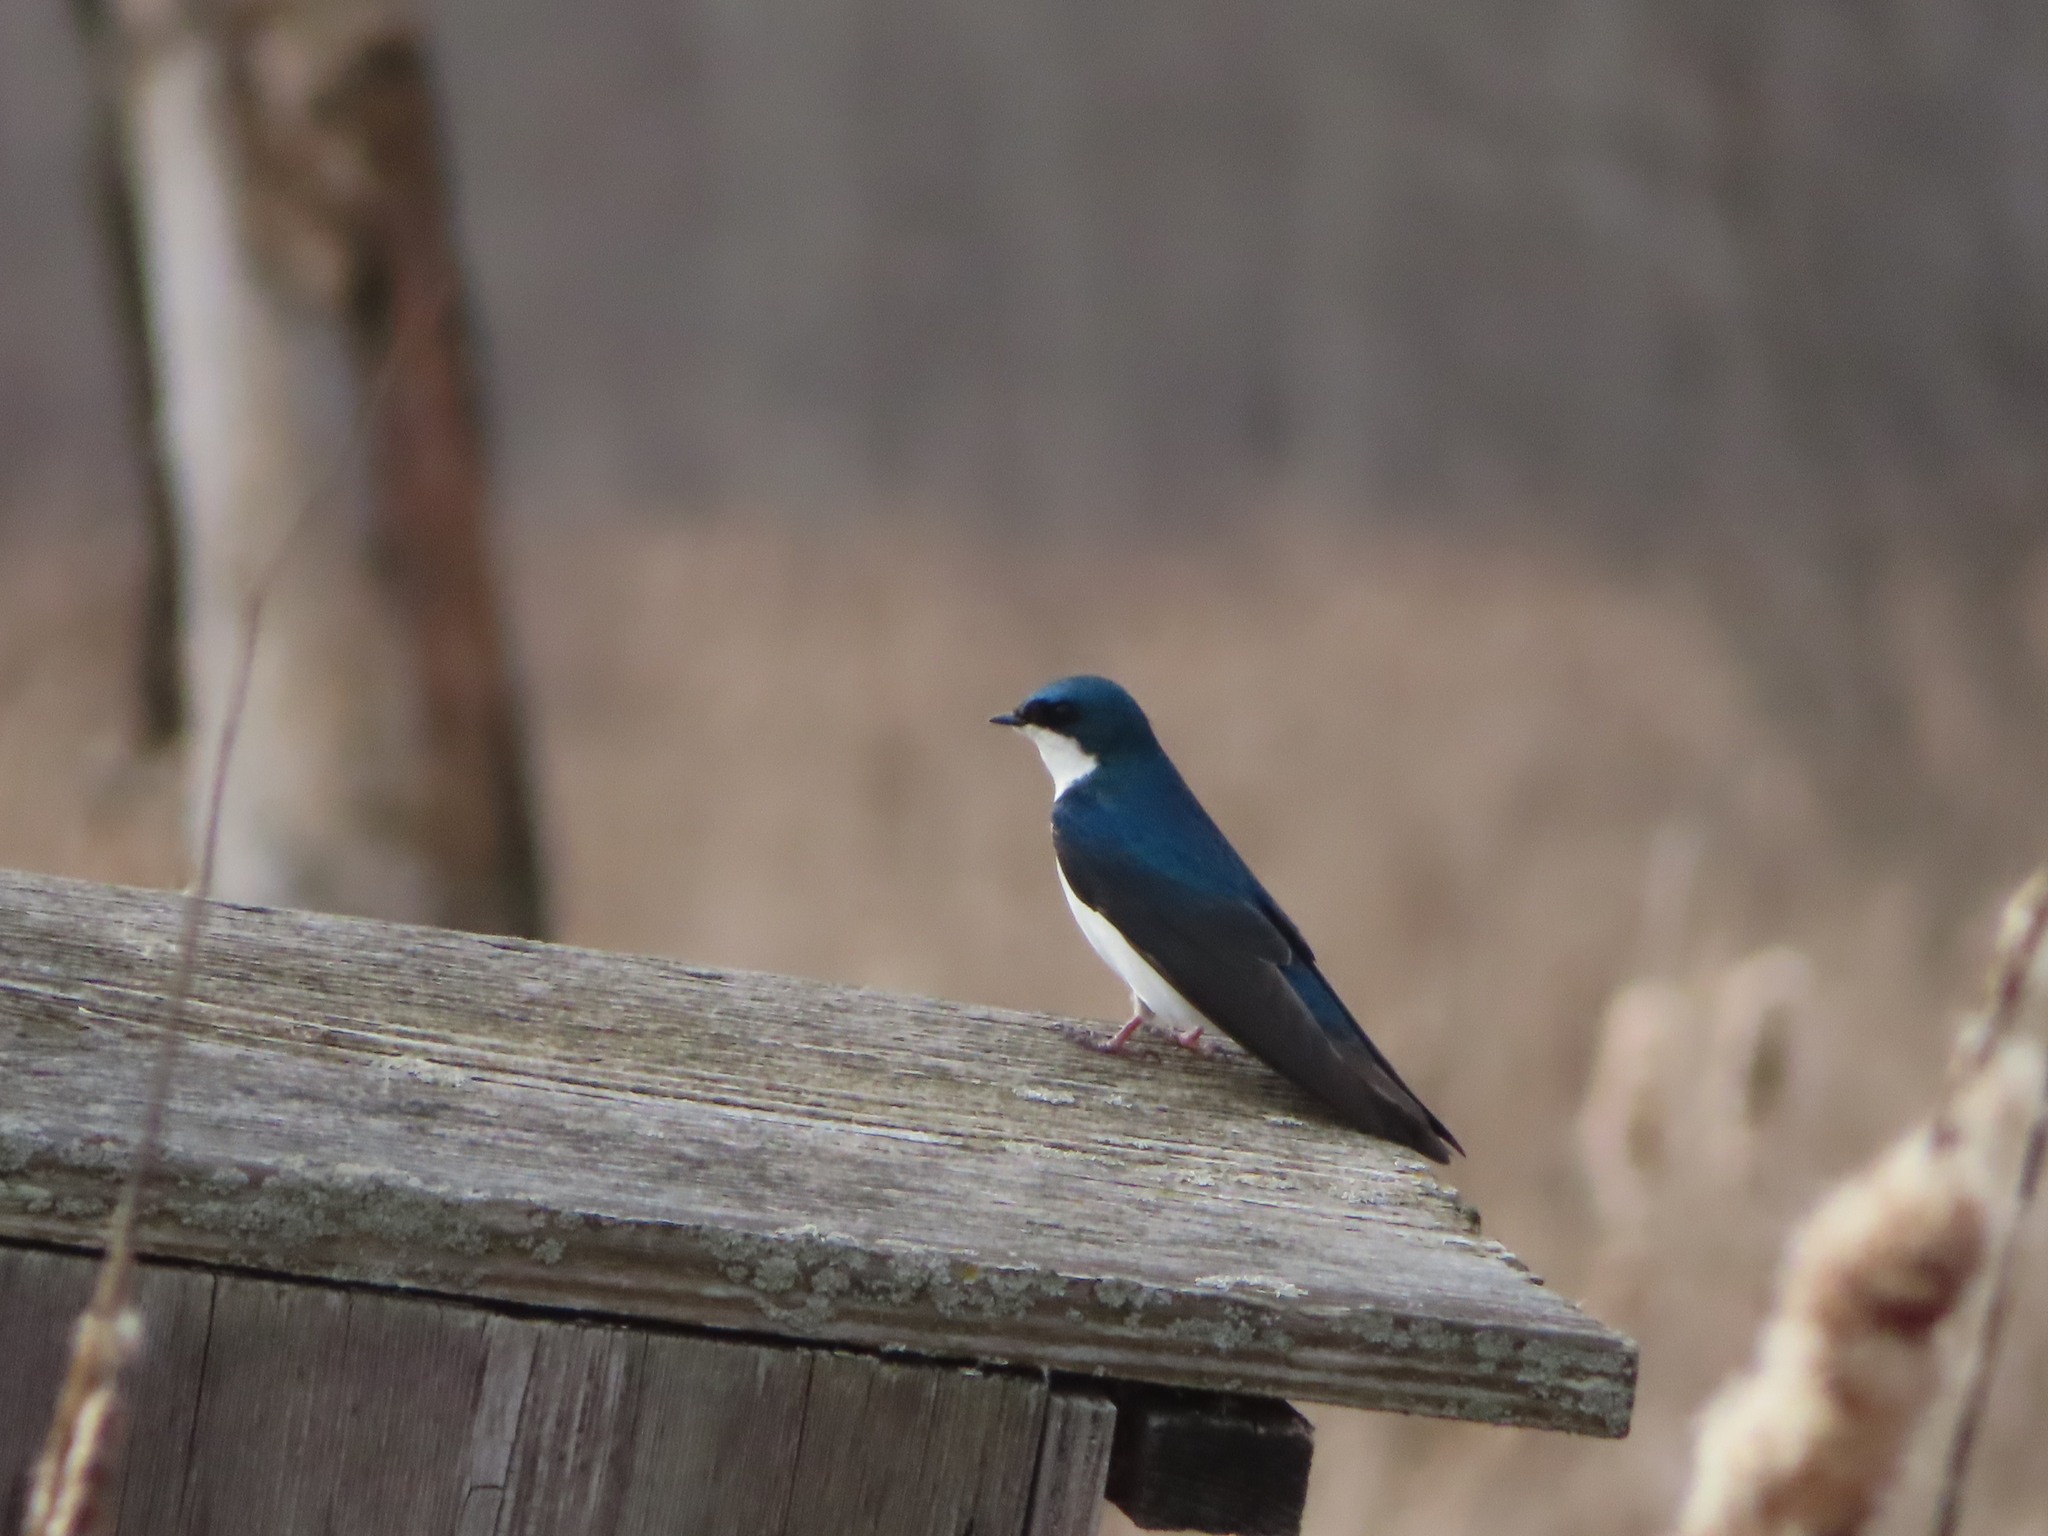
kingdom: Animalia
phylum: Chordata
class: Aves
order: Passeriformes
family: Hirundinidae
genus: Tachycineta
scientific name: Tachycineta bicolor
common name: Tree swallow
